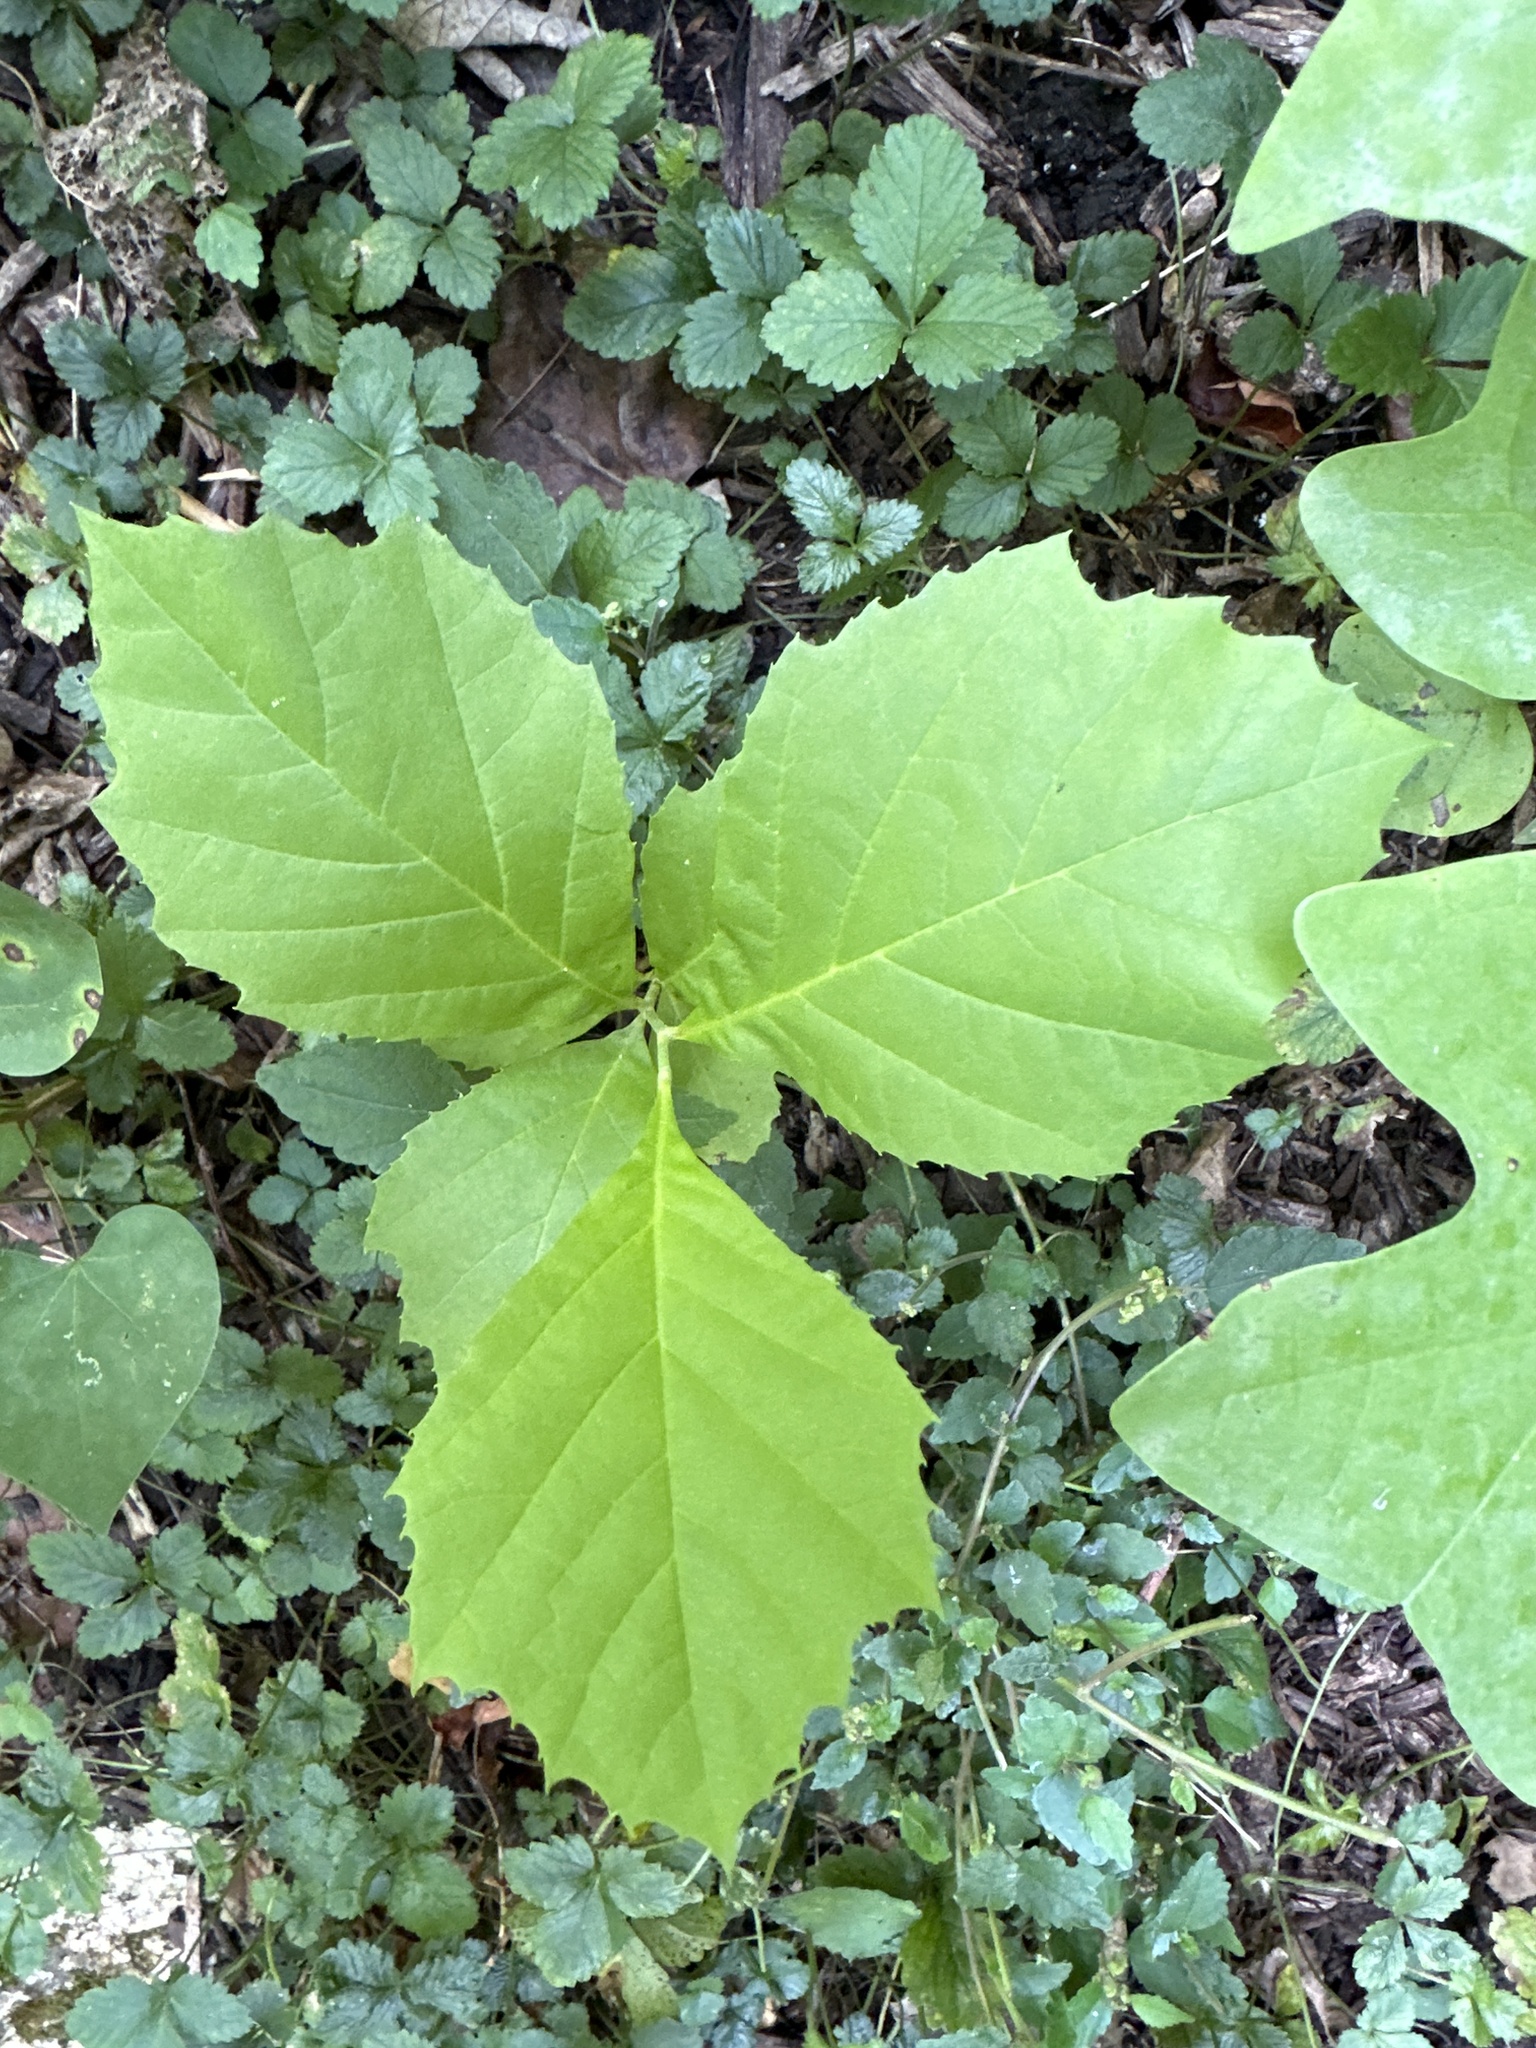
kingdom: Plantae
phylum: Tracheophyta
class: Magnoliopsida
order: Proteales
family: Platanaceae
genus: Platanus
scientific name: Platanus occidentalis
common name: American sycamore
